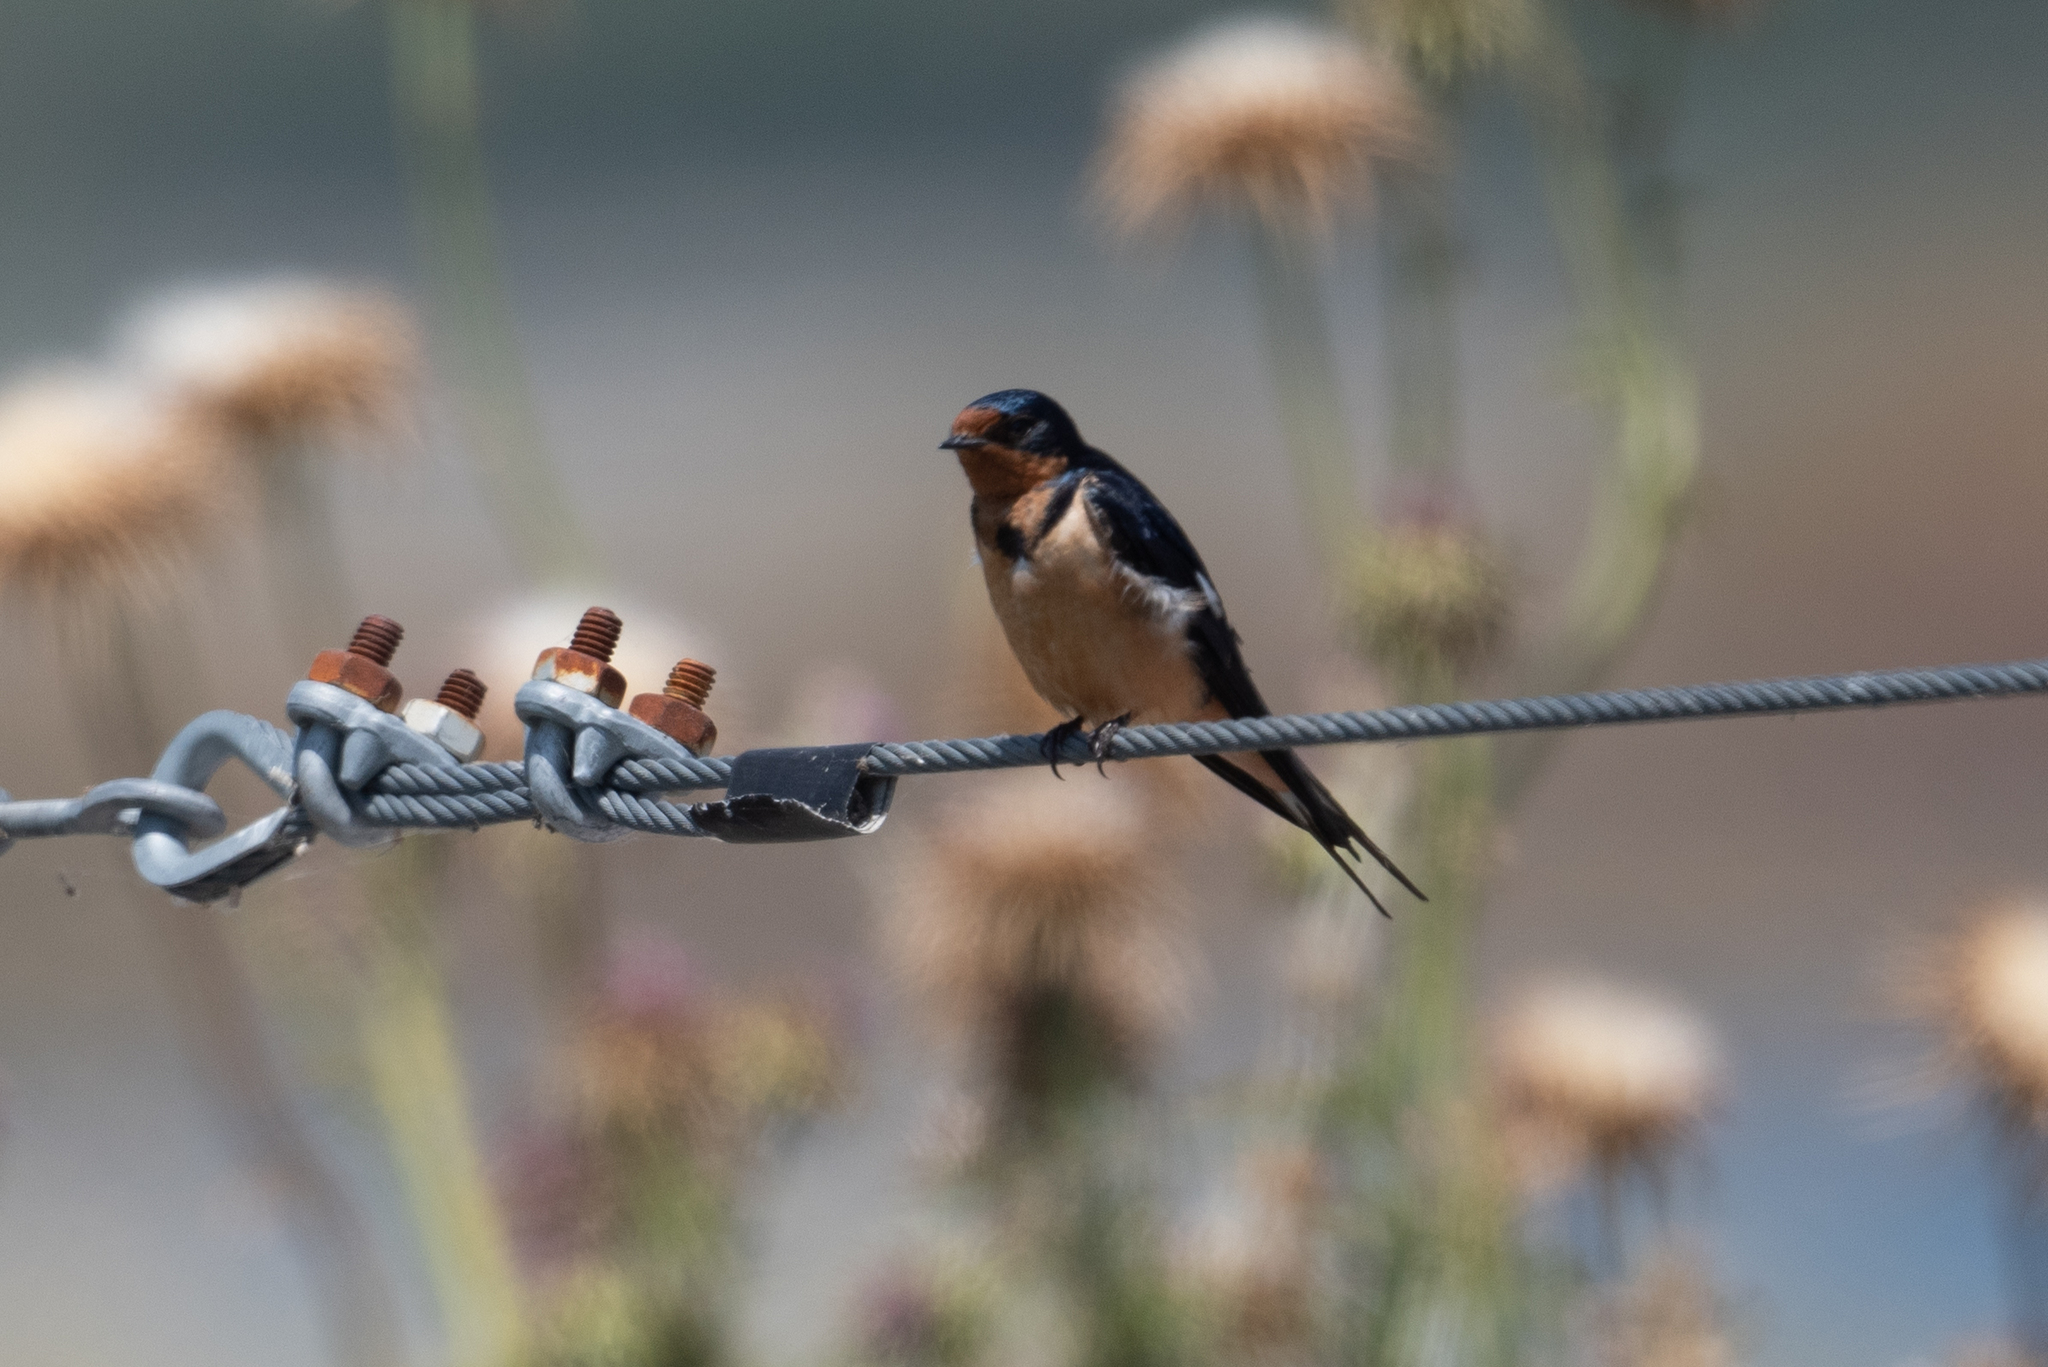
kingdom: Animalia
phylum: Chordata
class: Aves
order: Passeriformes
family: Hirundinidae
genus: Hirundo
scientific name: Hirundo rustica
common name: Barn swallow
